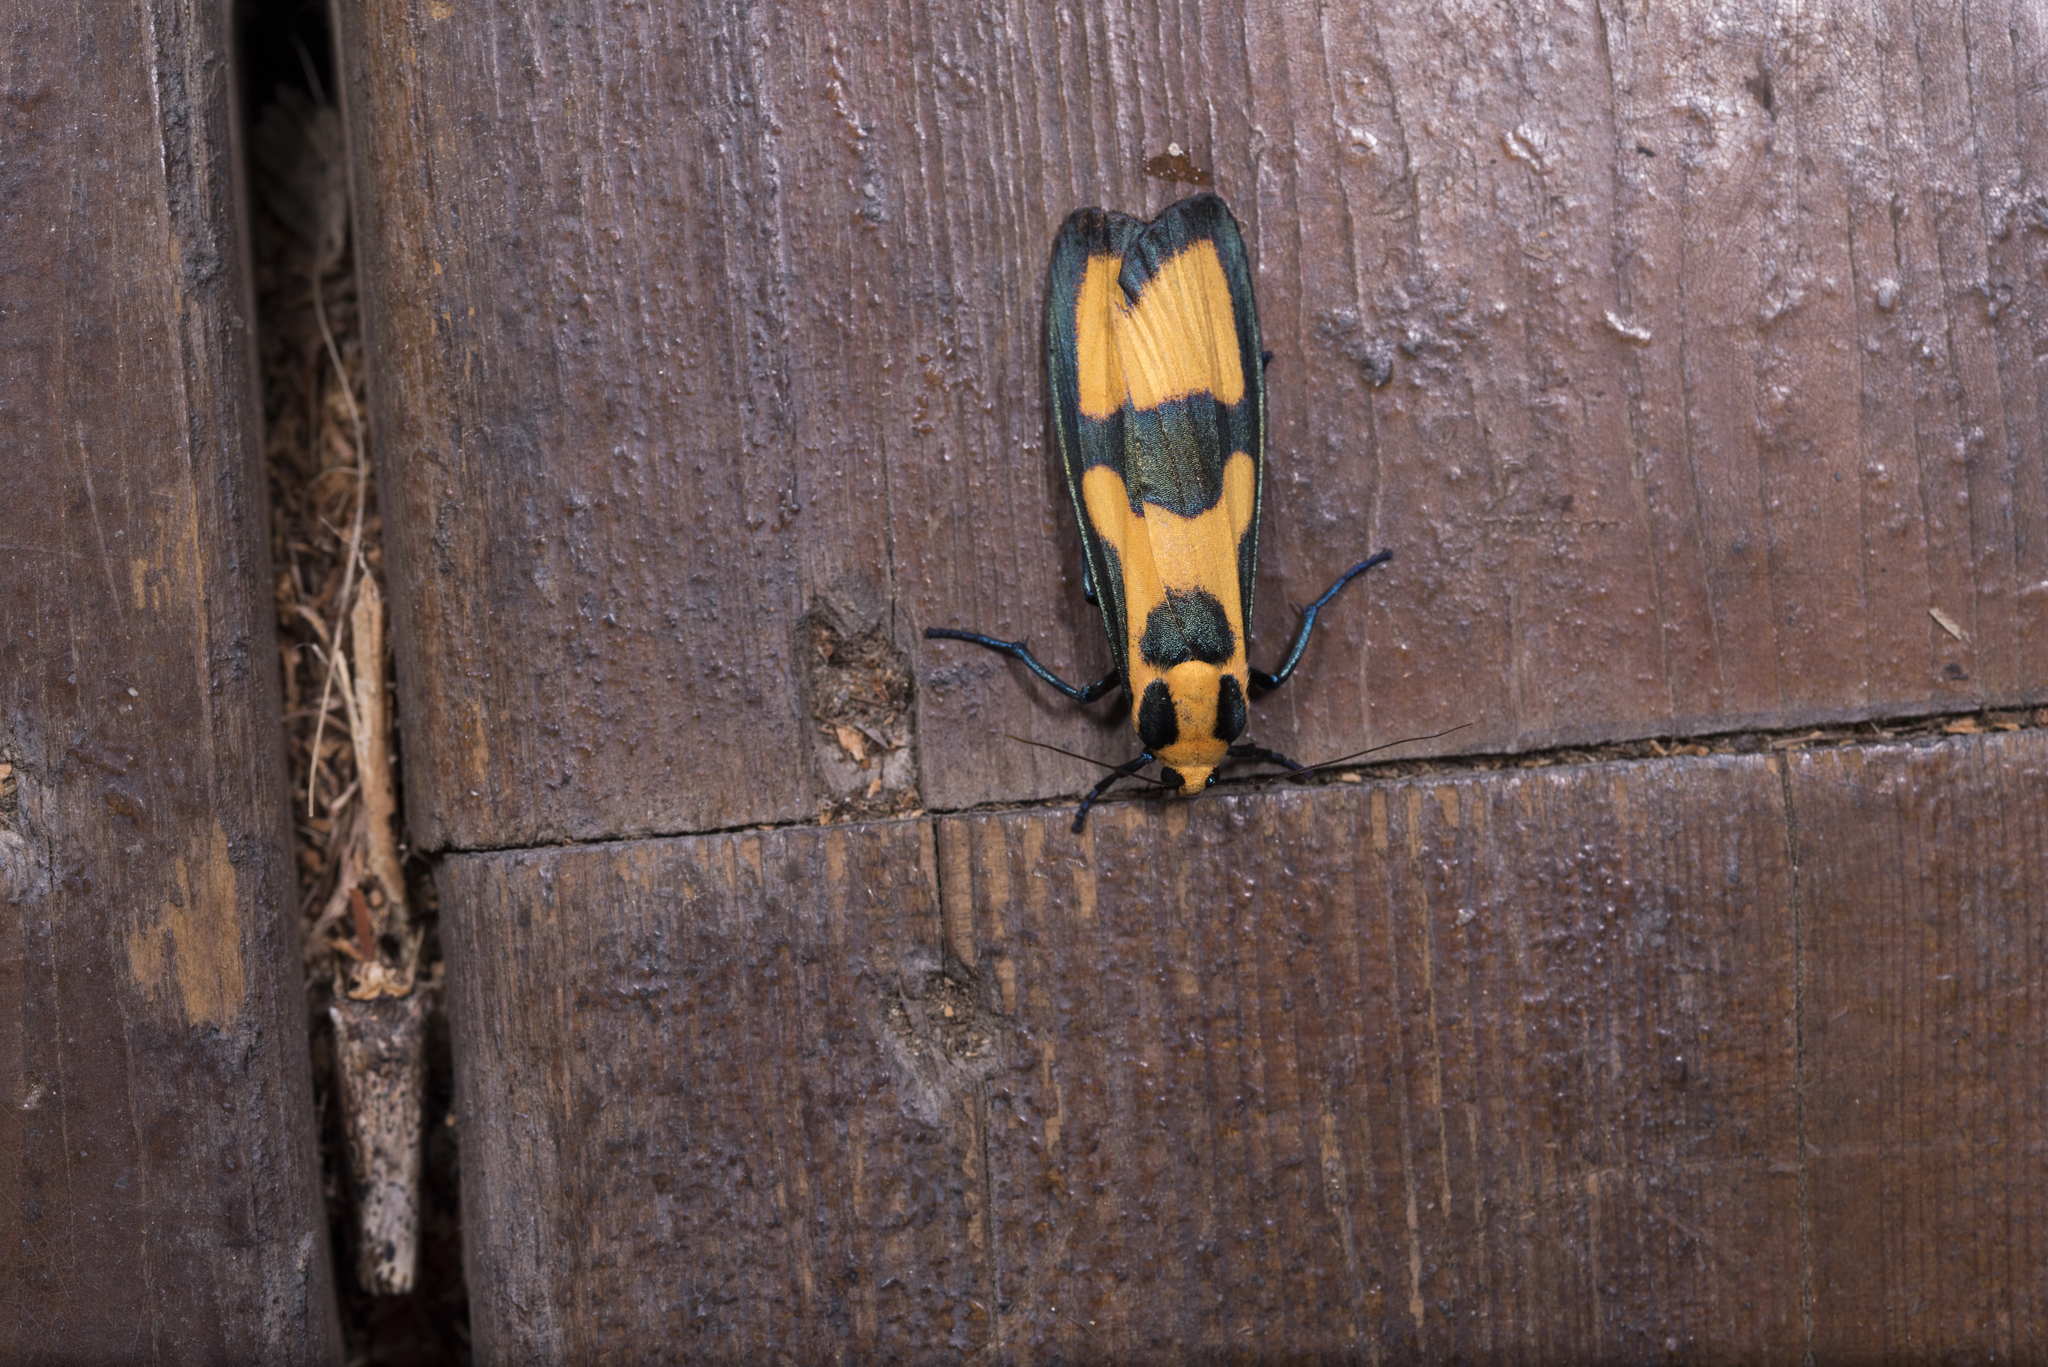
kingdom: Animalia
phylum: Arthropoda
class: Insecta
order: Lepidoptera
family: Erebidae
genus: Chrysaeglia
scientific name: Chrysaeglia magnifica
